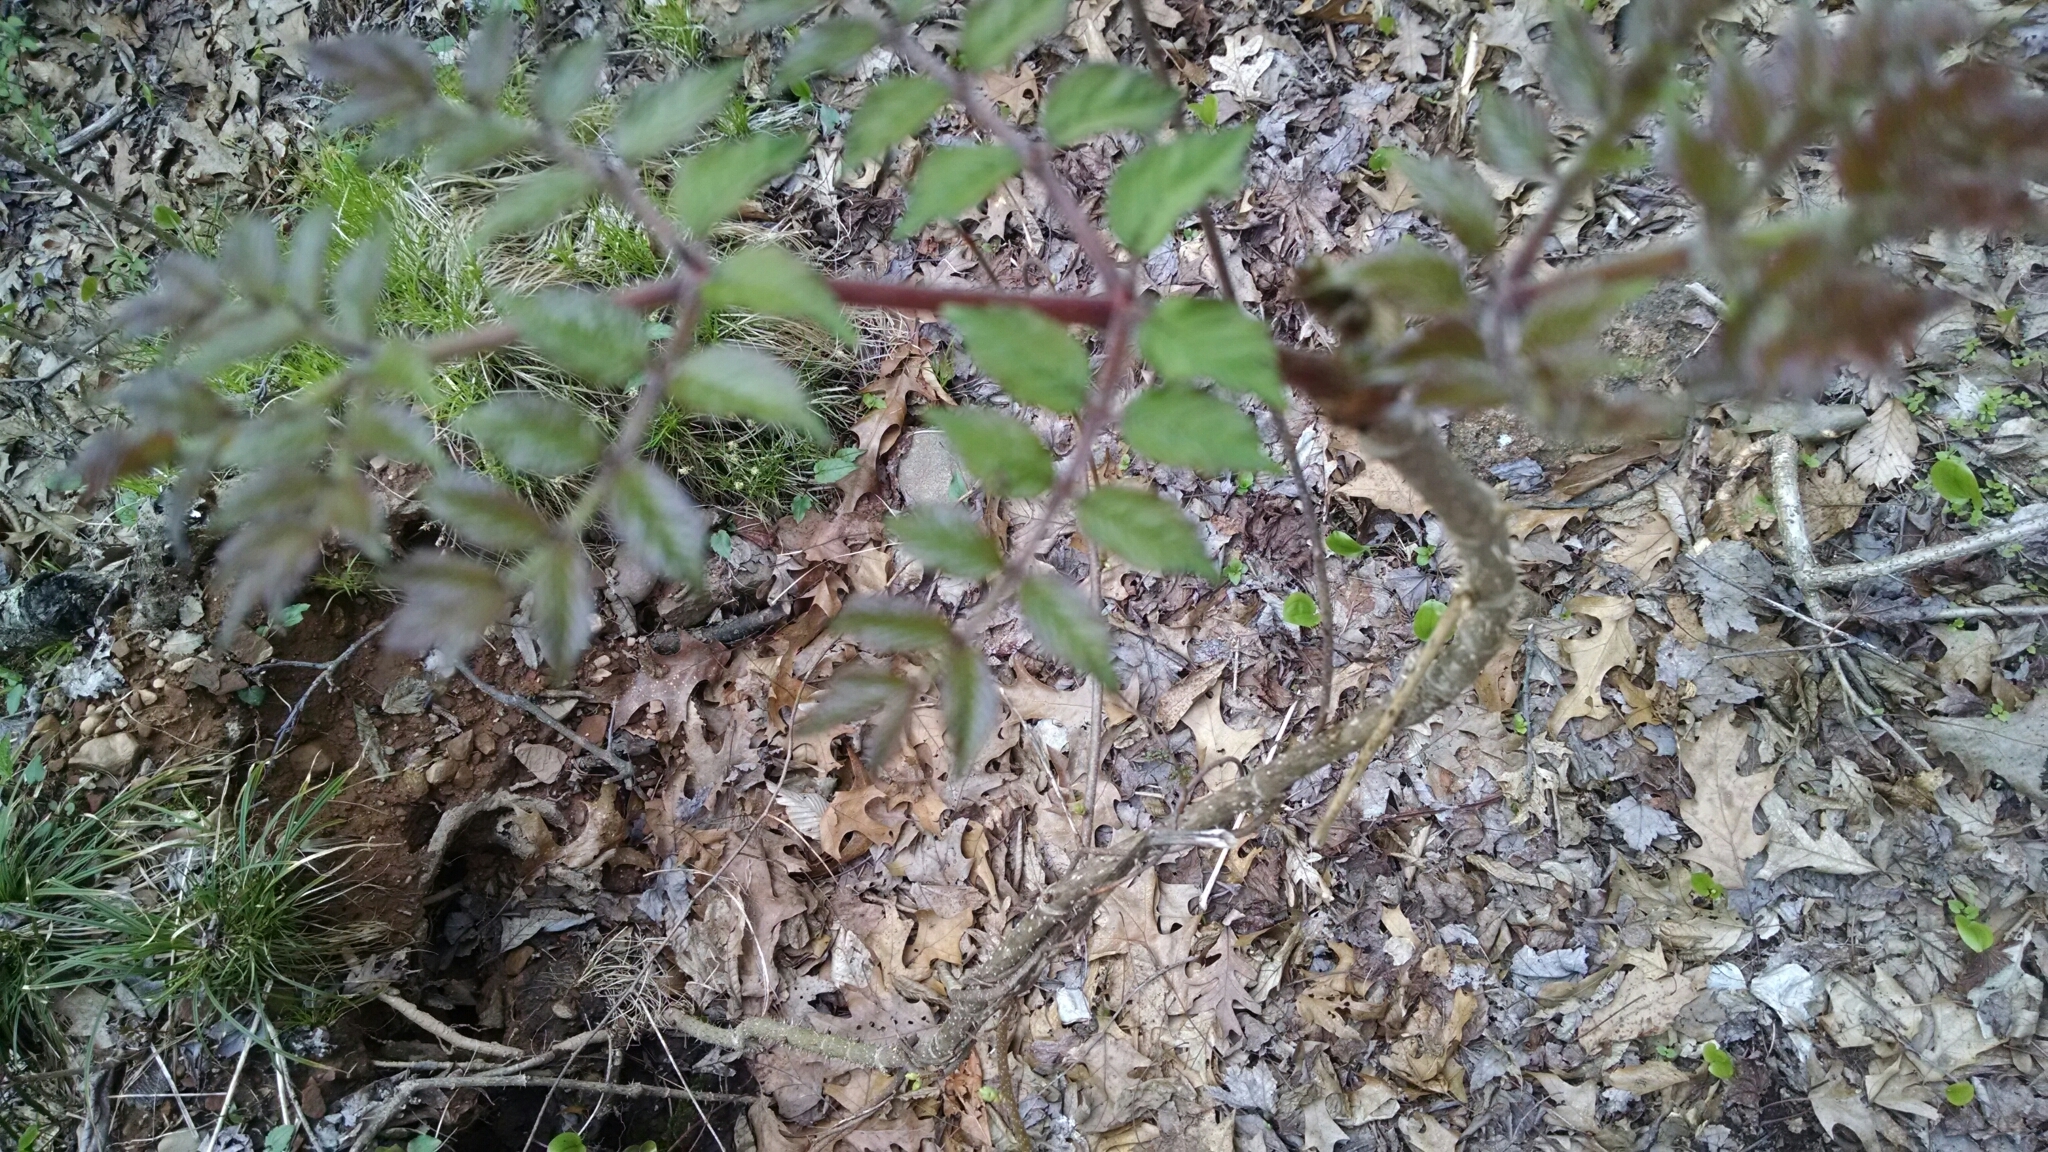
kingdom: Plantae
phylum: Tracheophyta
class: Magnoliopsida
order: Apiales
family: Araliaceae
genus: Aralia
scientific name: Aralia elata
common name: Japanese angelica-tree
